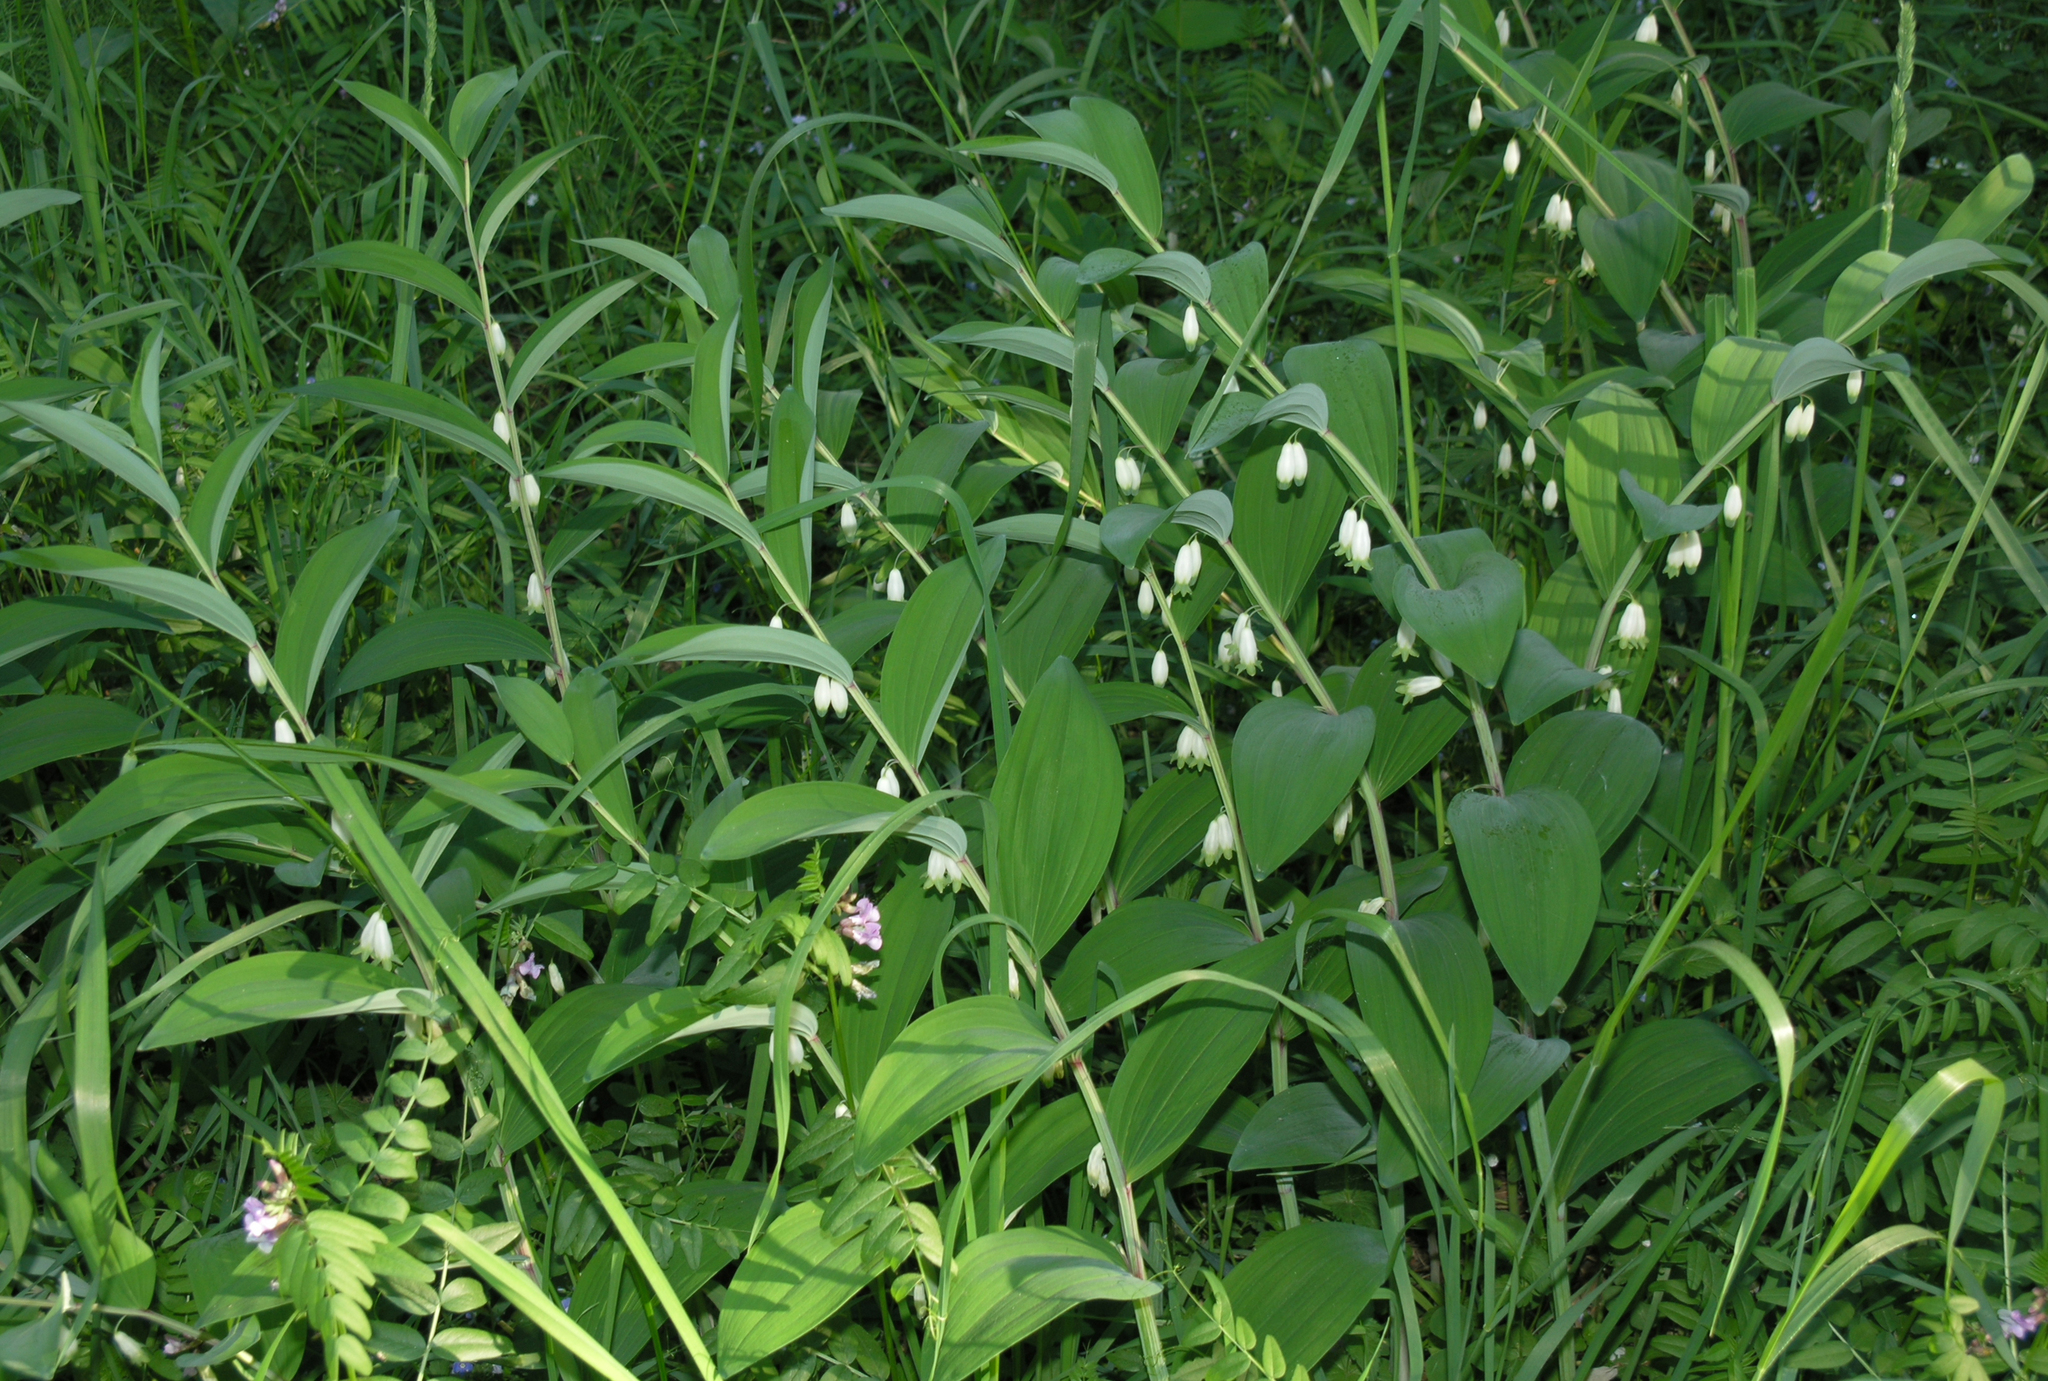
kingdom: Plantae
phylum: Tracheophyta
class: Liliopsida
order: Asparagales
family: Asparagaceae
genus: Polygonatum
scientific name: Polygonatum odoratum
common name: Angular solomon's-seal
